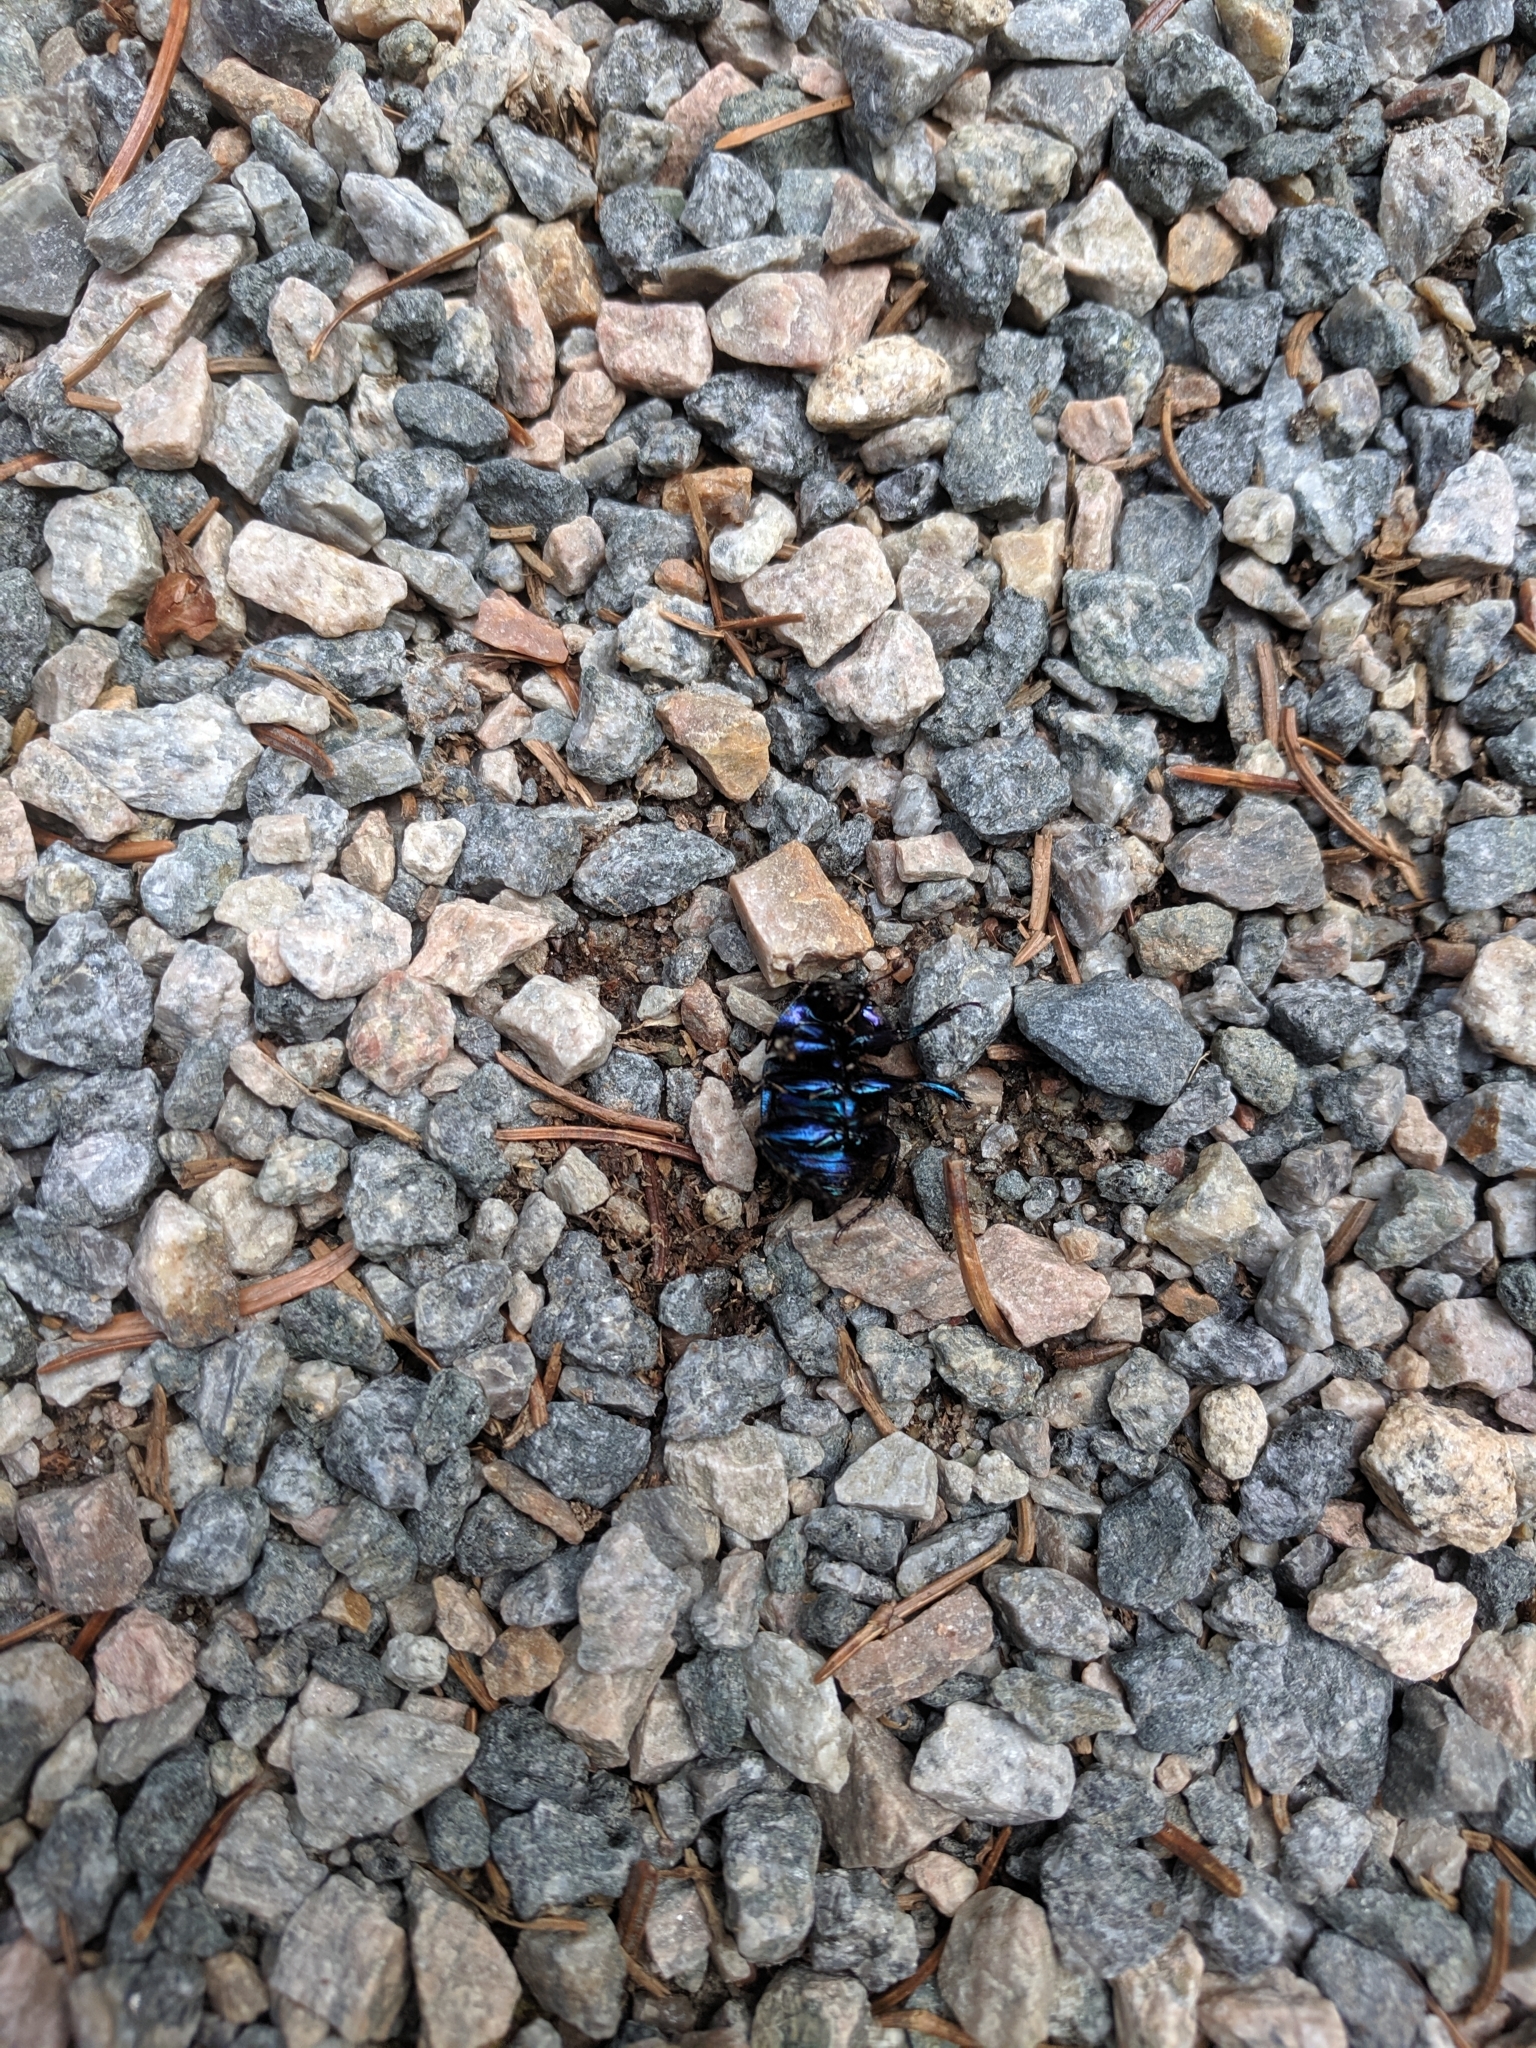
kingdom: Animalia
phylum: Arthropoda
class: Insecta
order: Coleoptera
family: Geotrupidae
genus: Anoplotrupes
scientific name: Anoplotrupes stercorosus
